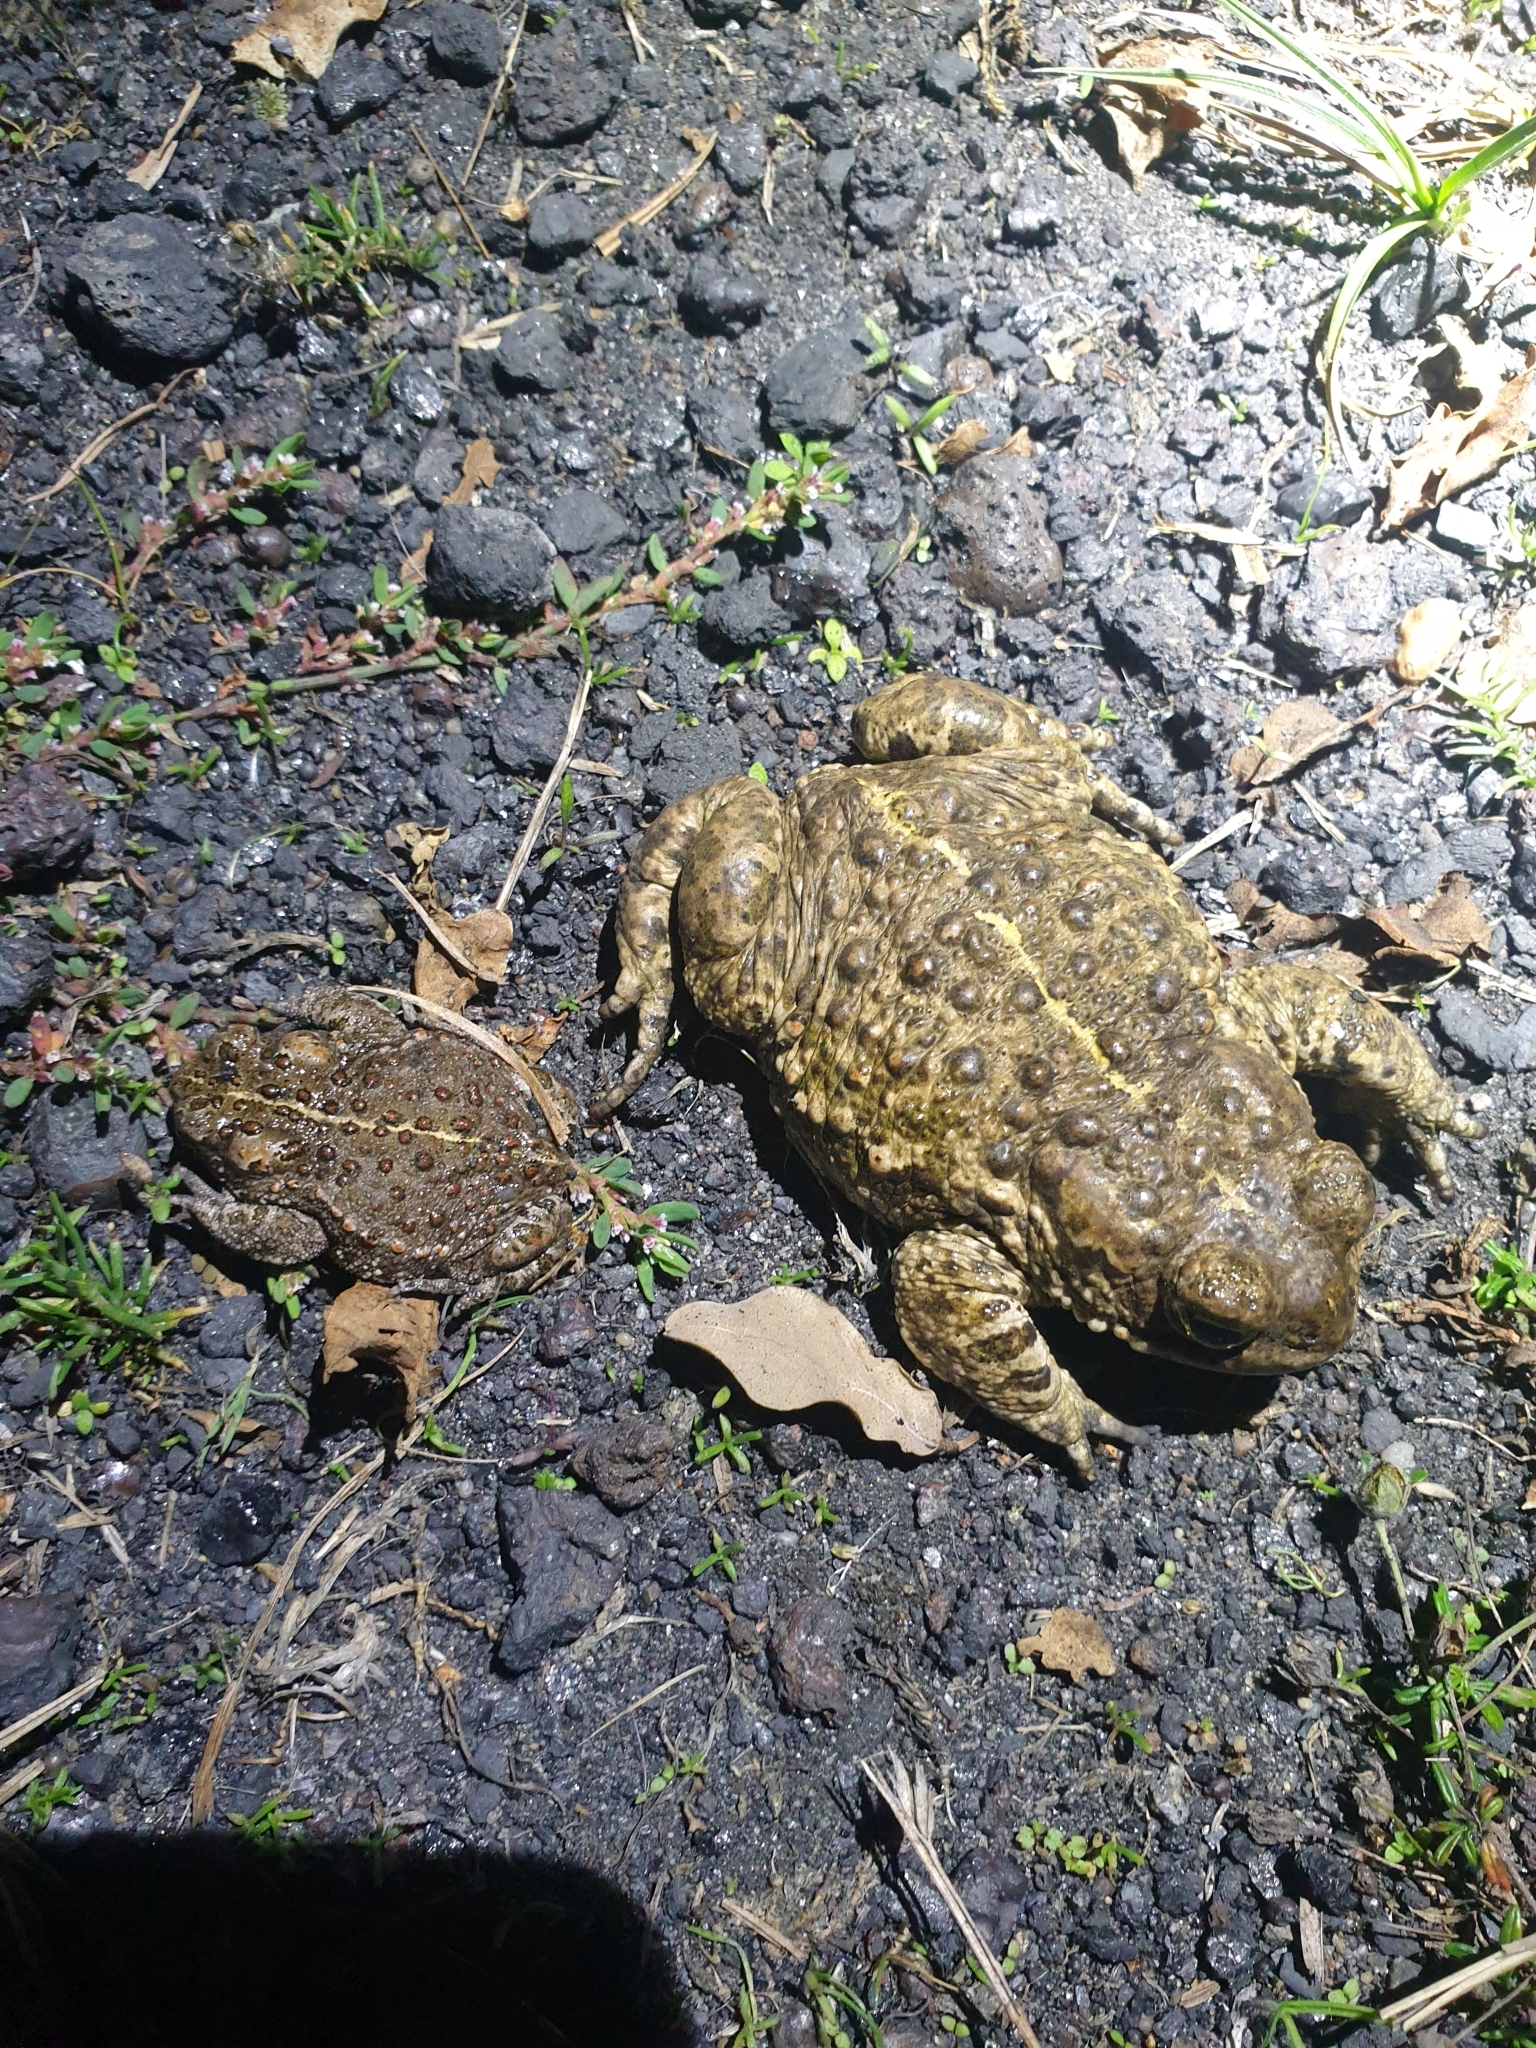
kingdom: Animalia
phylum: Chordata
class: Amphibia
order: Anura
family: Bufonidae
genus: Epidalea
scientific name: Epidalea calamita
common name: Natterjack toad
